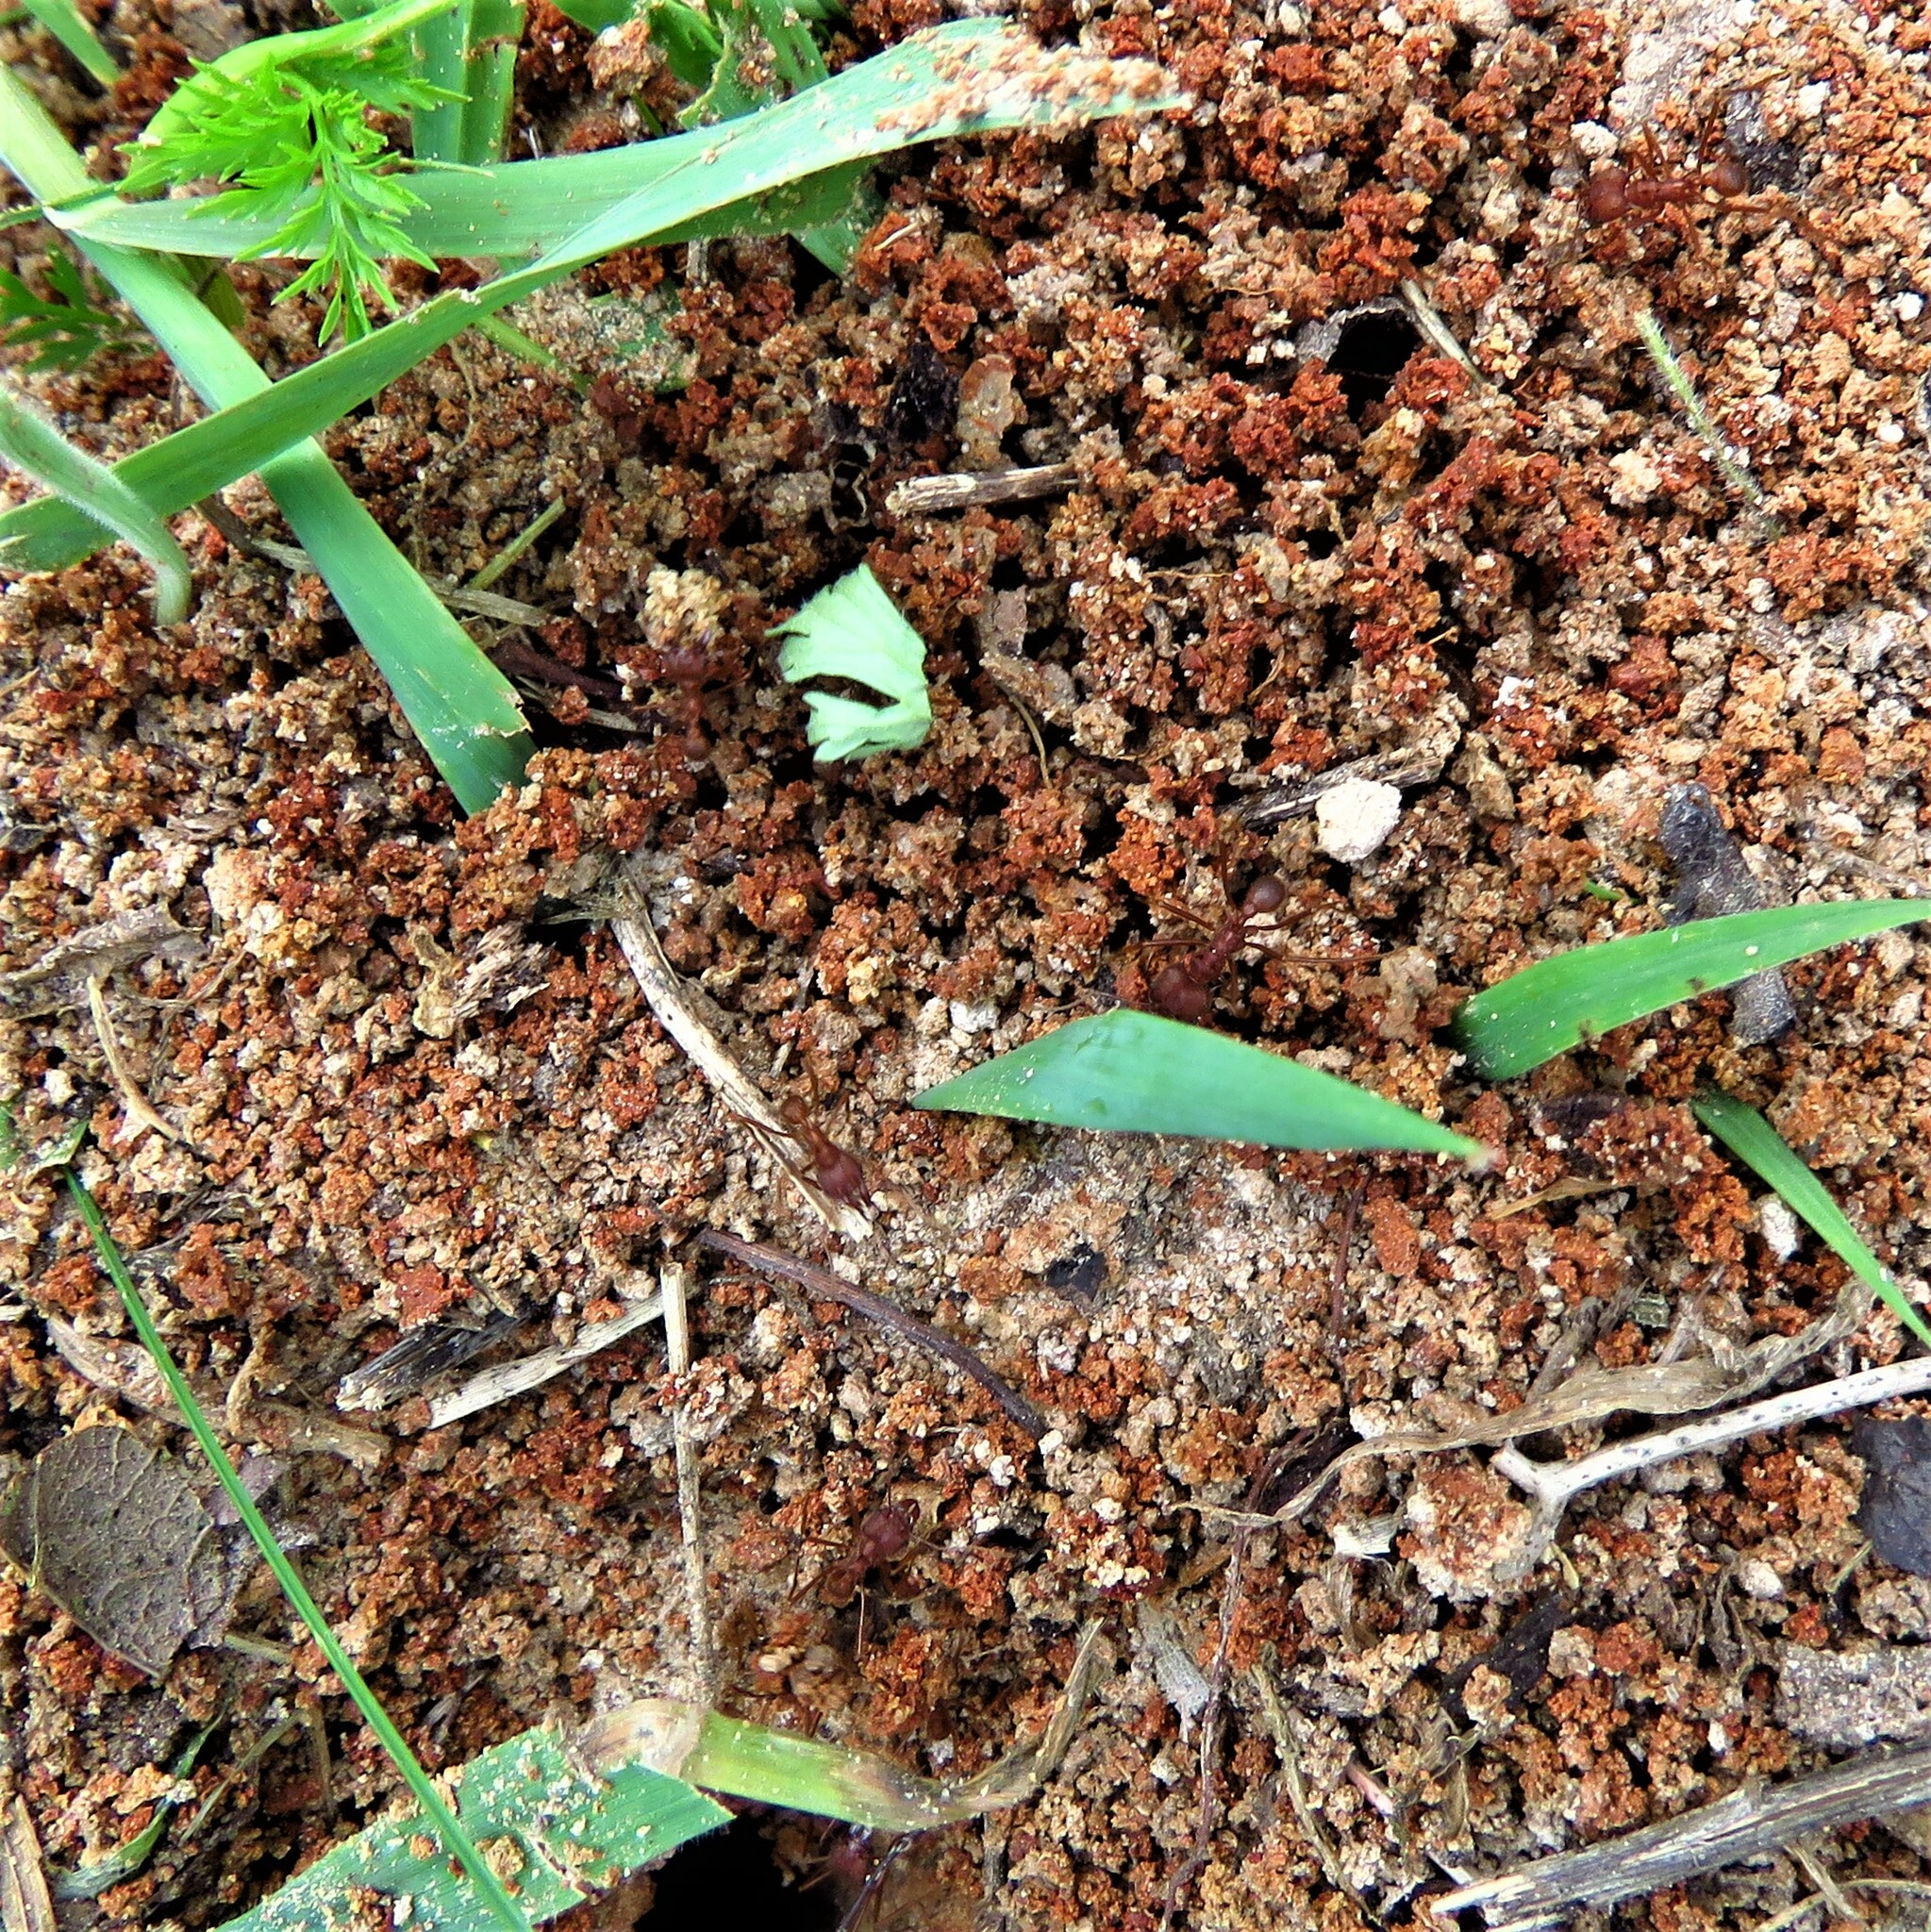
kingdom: Animalia
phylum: Arthropoda
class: Insecta
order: Hymenoptera
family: Formicidae
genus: Atta
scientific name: Atta texana
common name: Texas leafcutting ant
